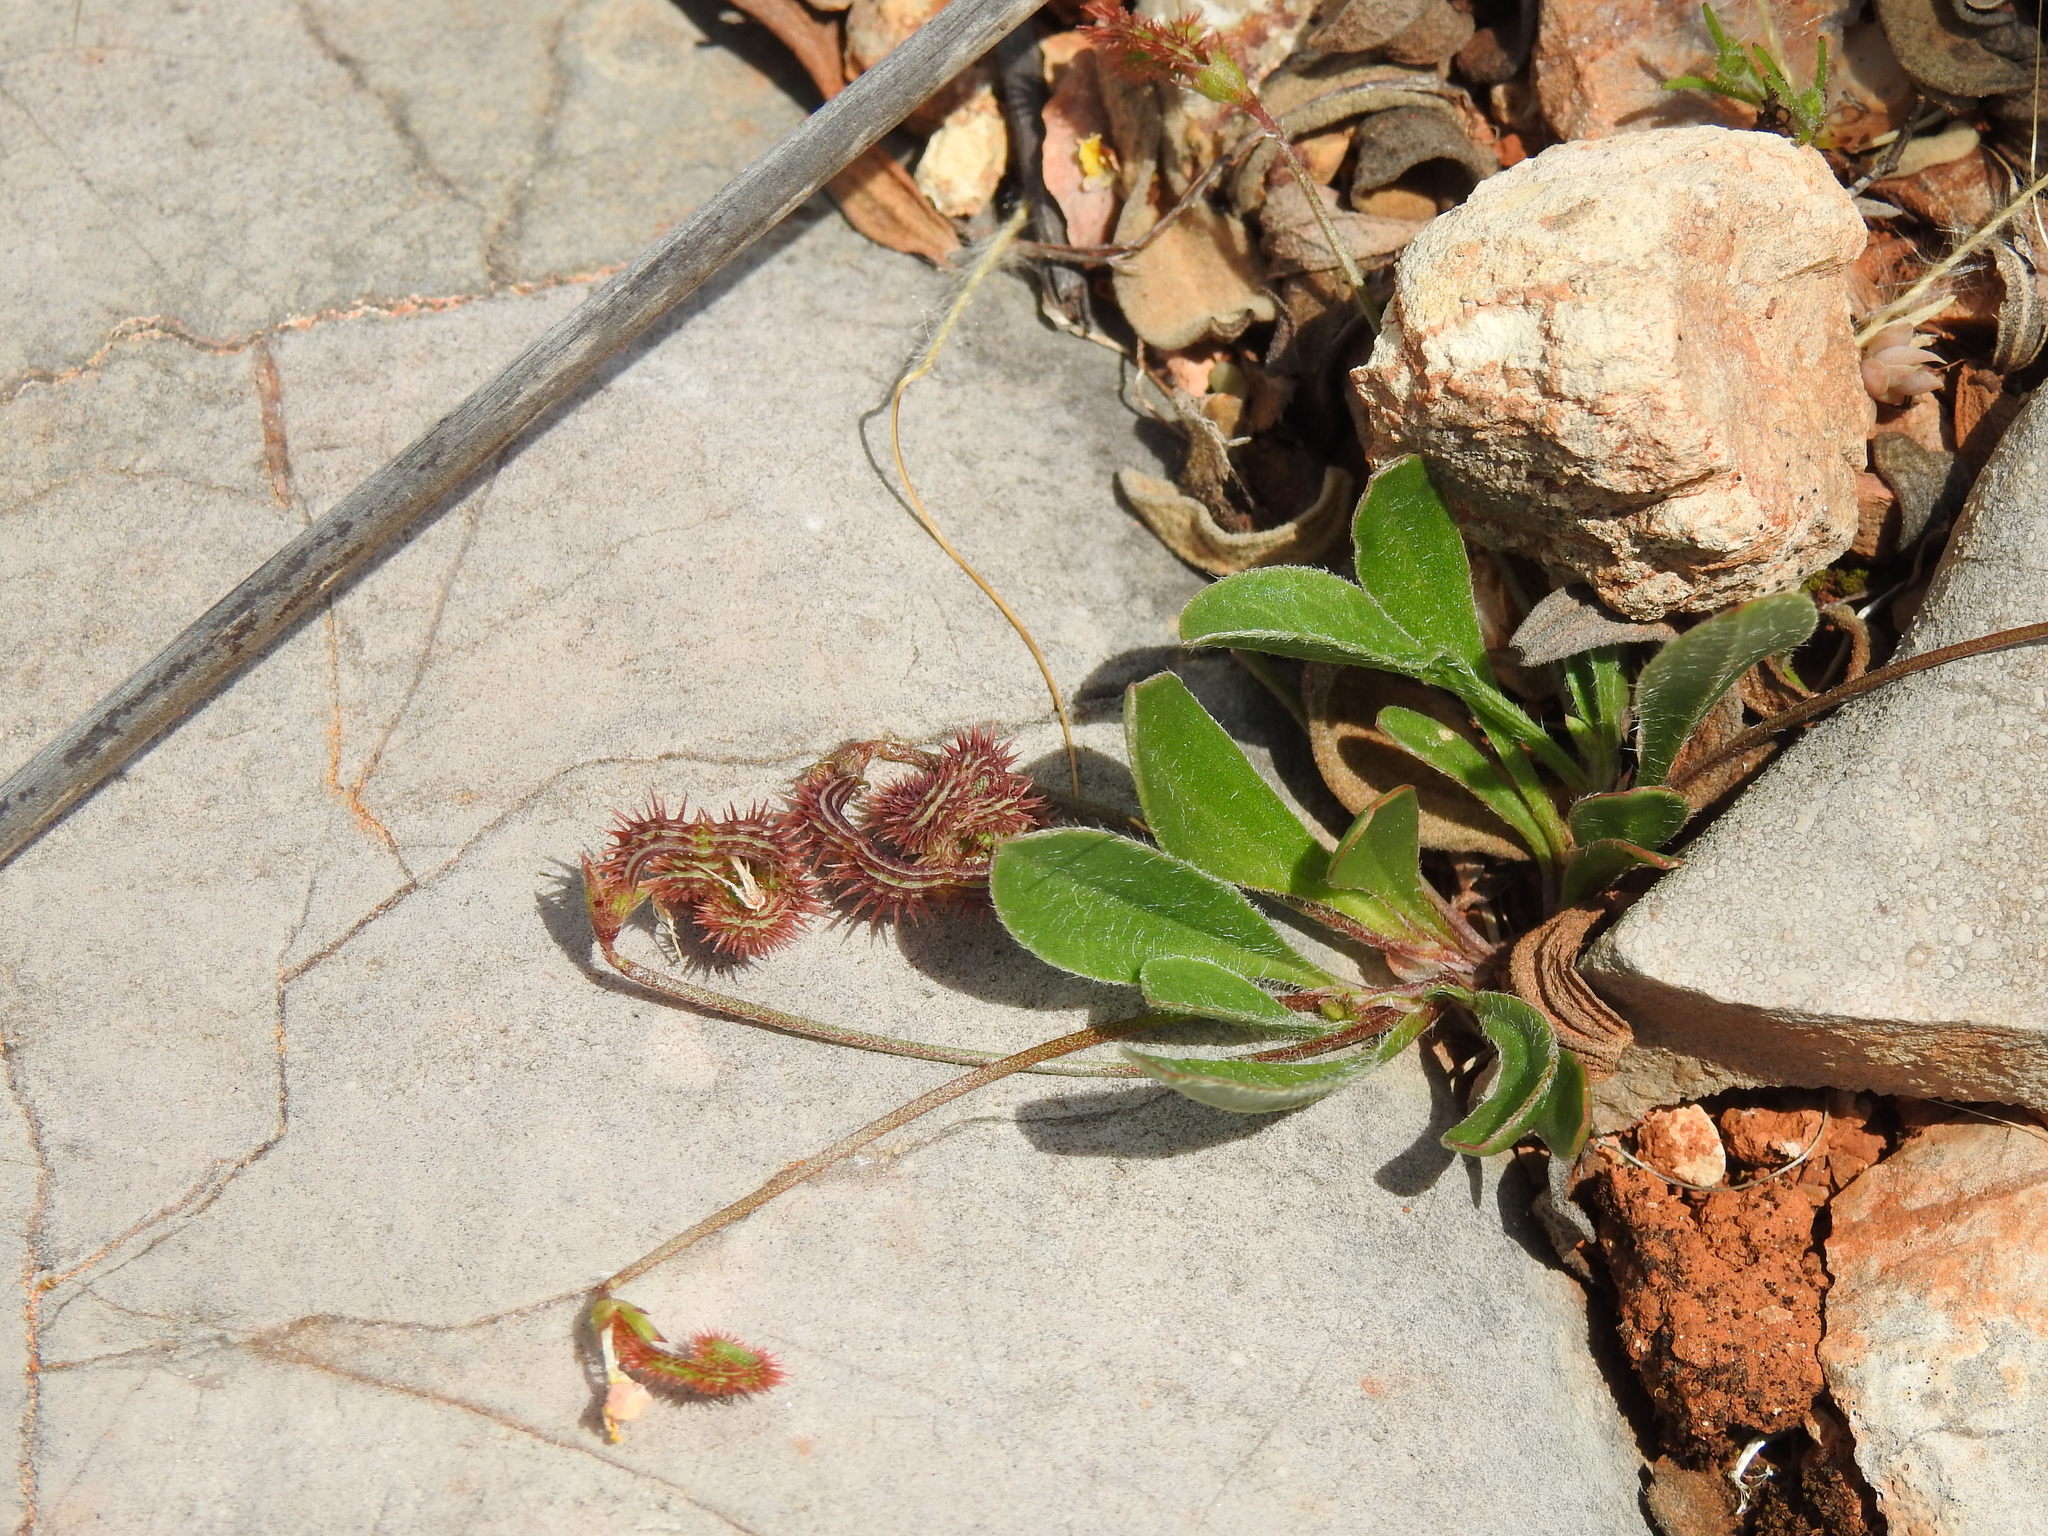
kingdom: Plantae
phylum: Tracheophyta
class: Magnoliopsida
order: Fabales
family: Fabaceae
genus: Scorpiurus
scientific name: Scorpiurus muricatus
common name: Caterpillar-plant
